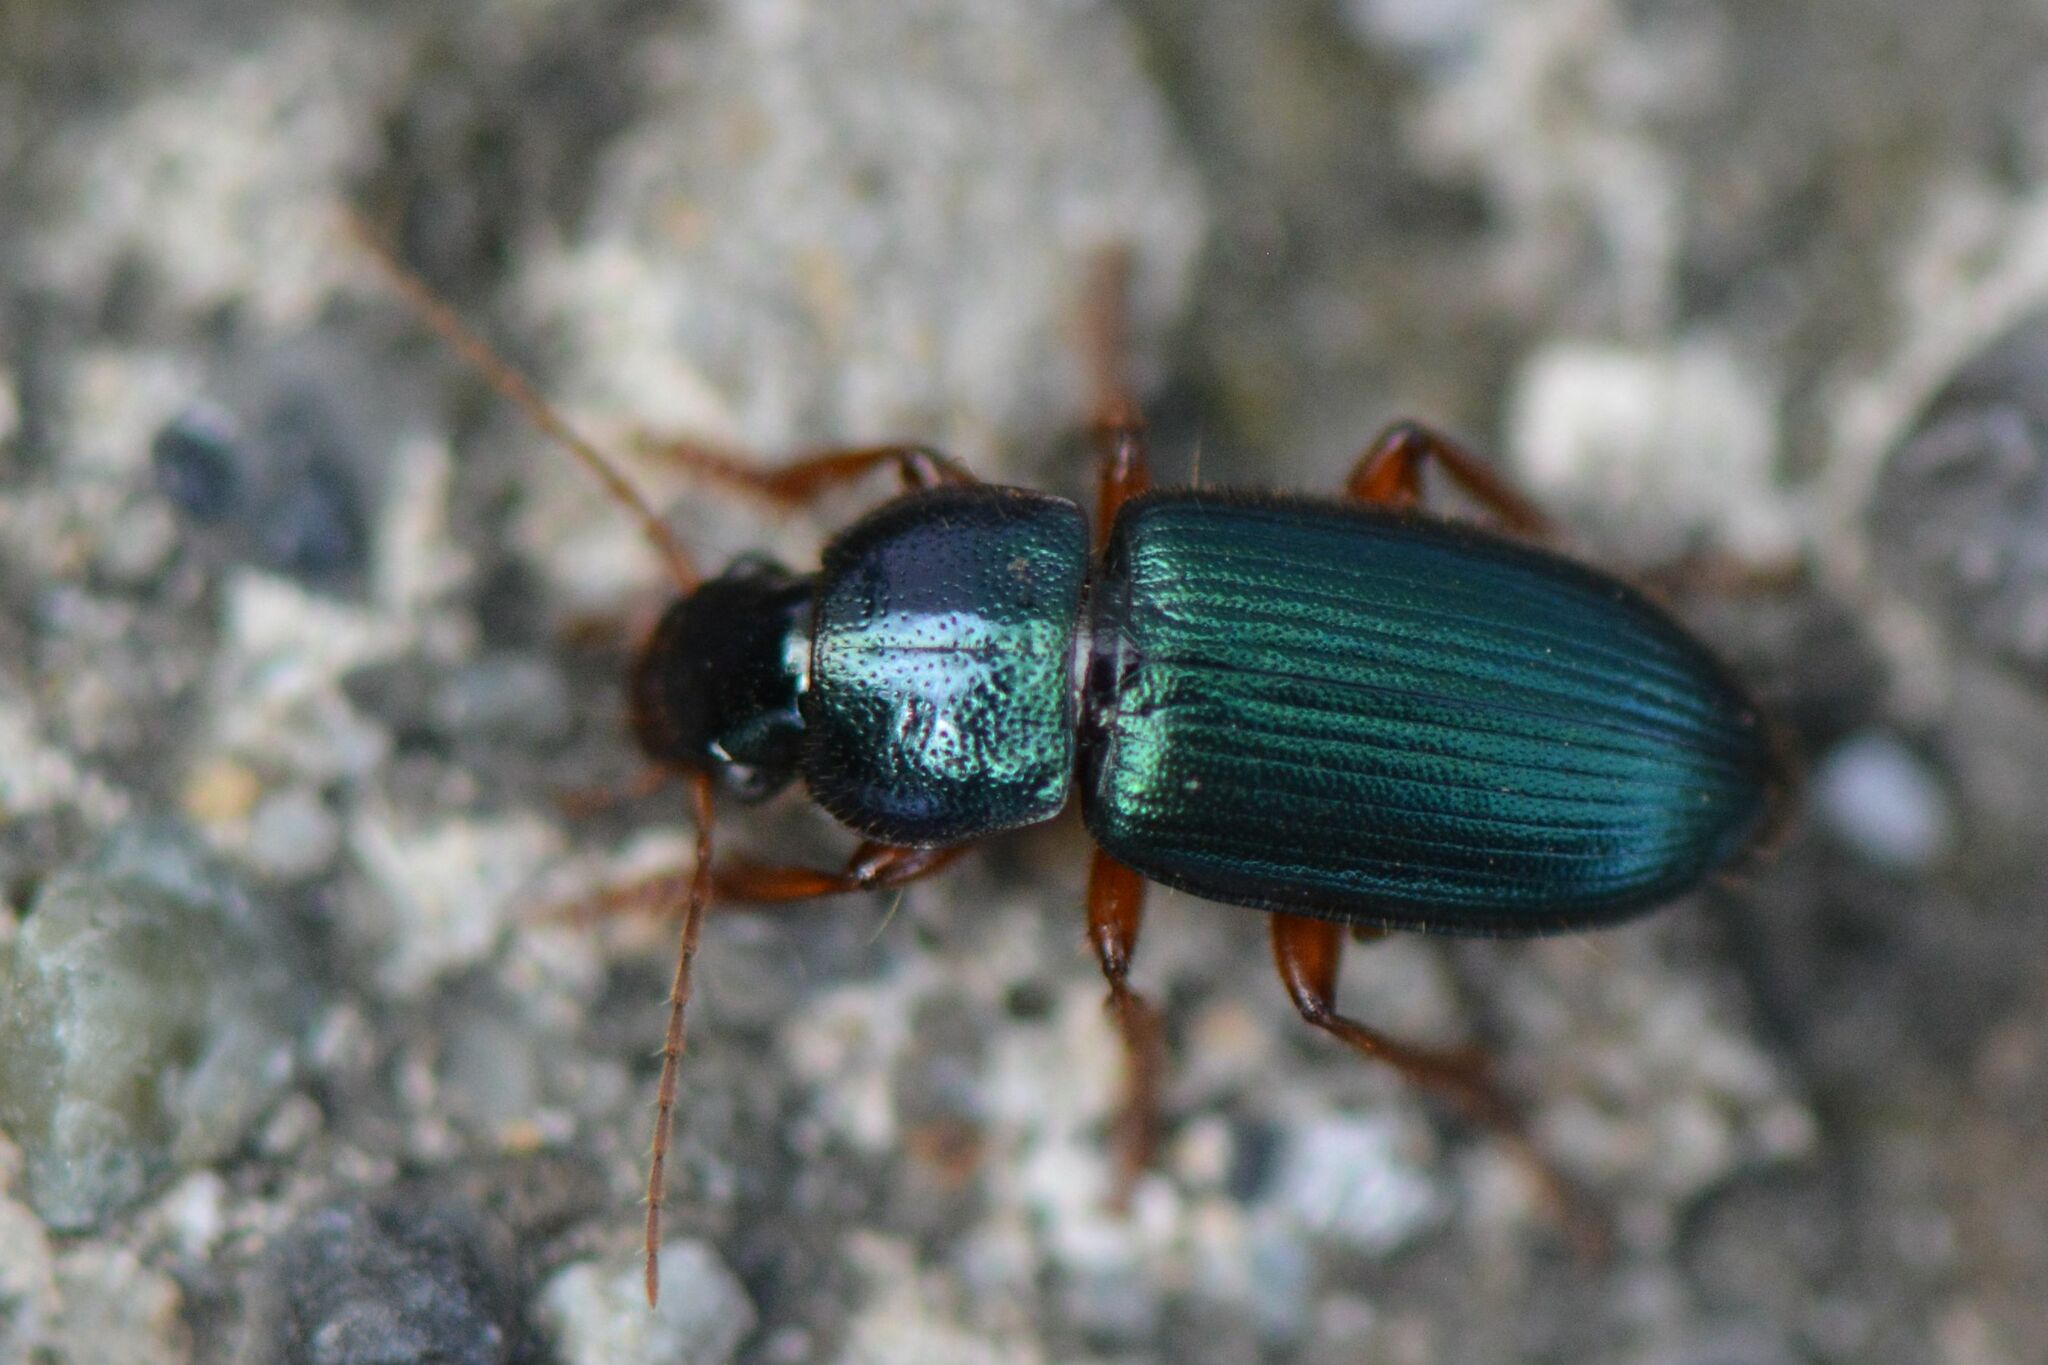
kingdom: Animalia
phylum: Arthropoda
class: Insecta
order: Coleoptera
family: Carabidae
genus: Ophonus
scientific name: Ophonus azureus
